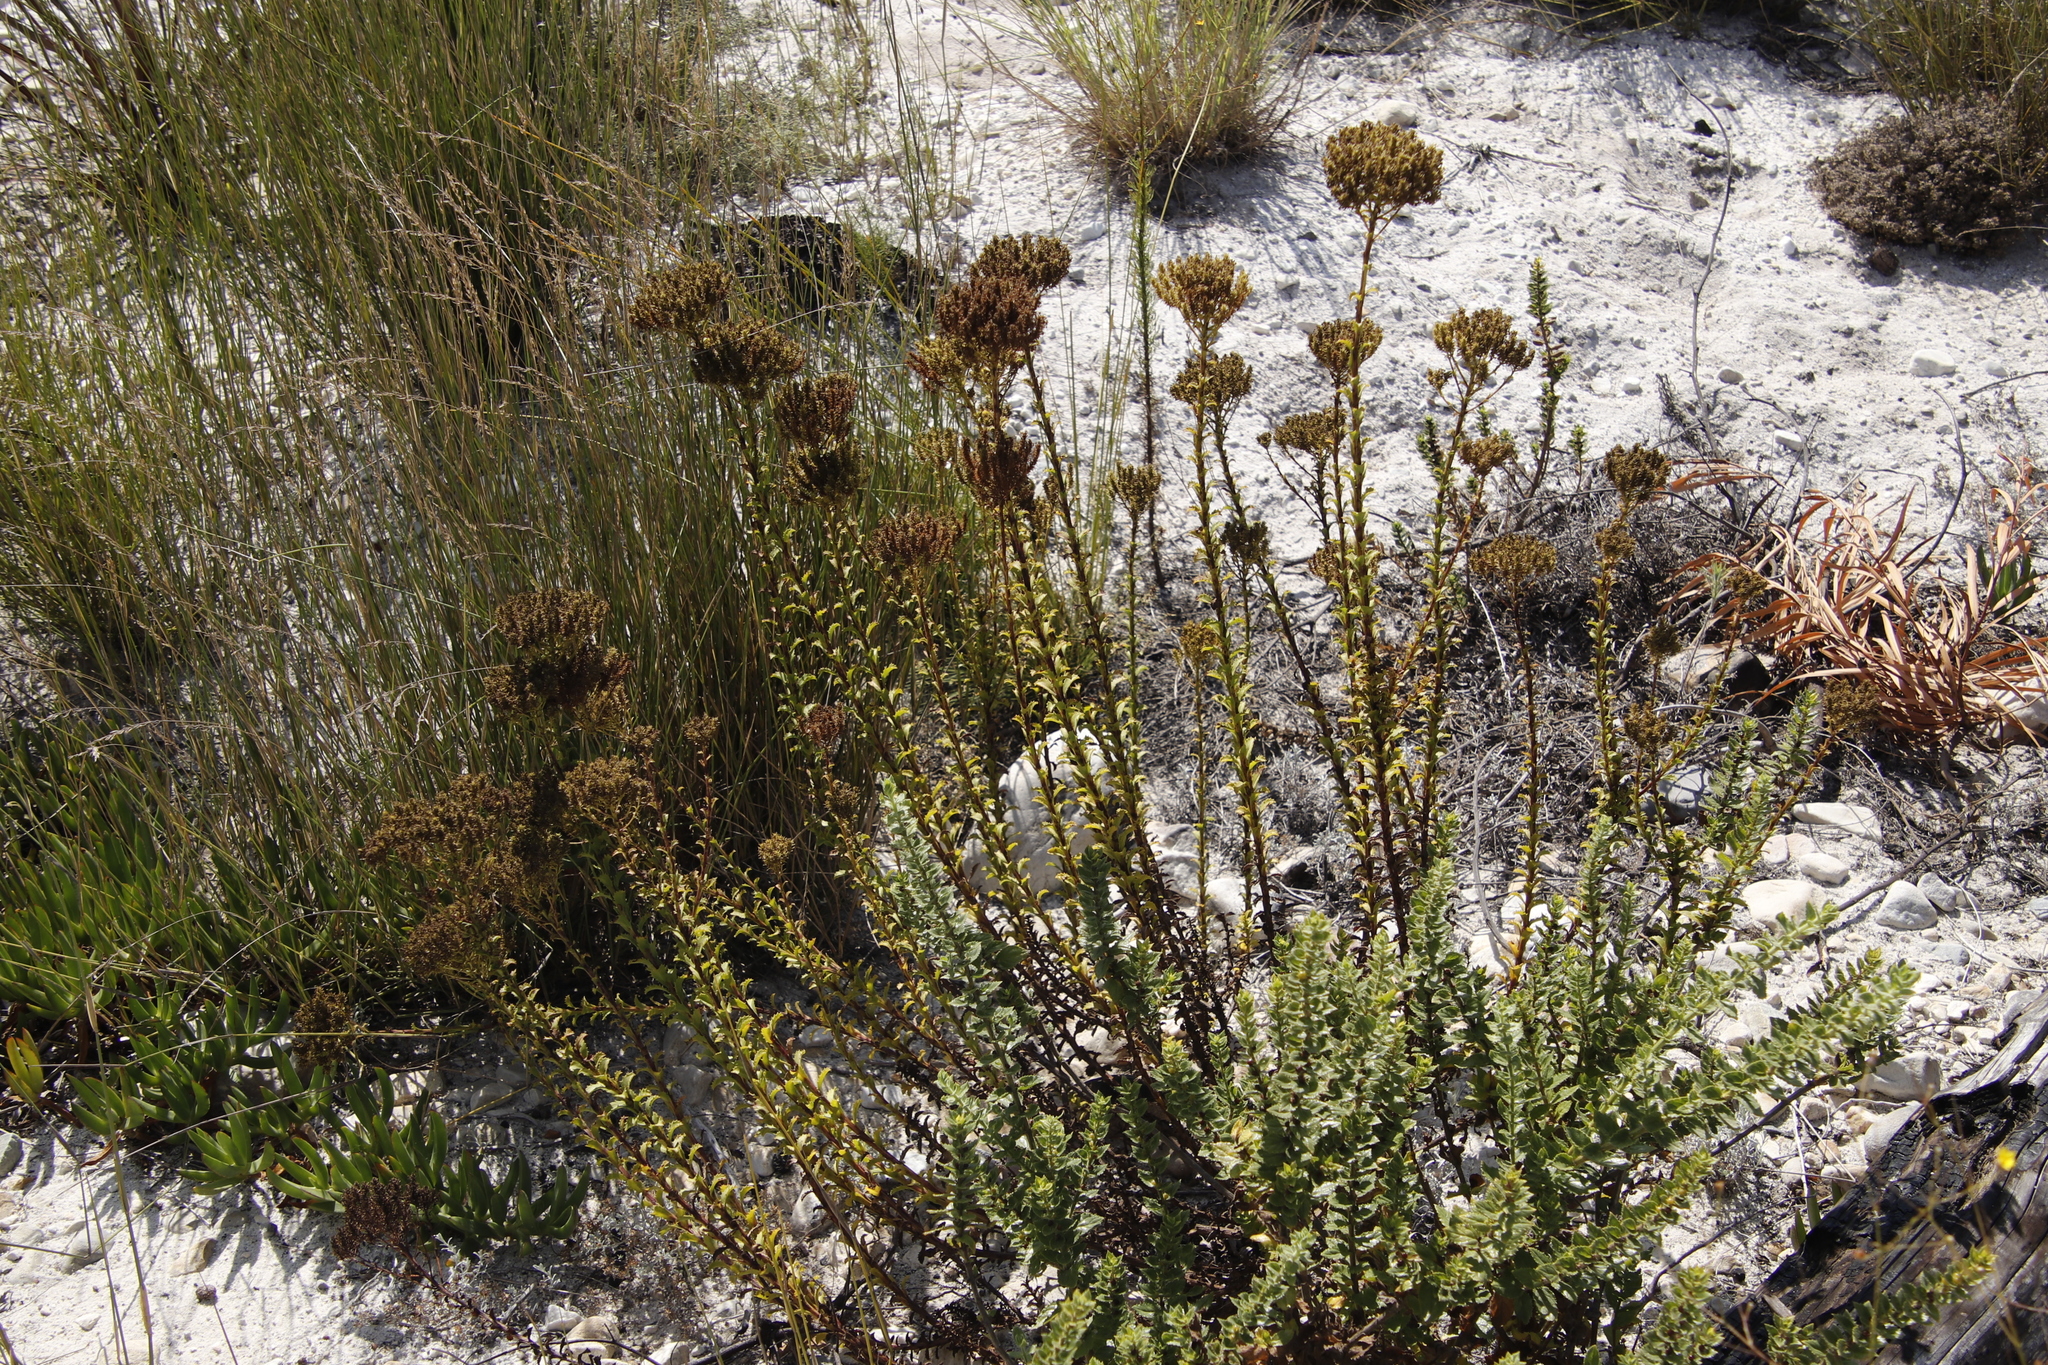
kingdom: Plantae
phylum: Tracheophyta
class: Magnoliopsida
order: Lamiales
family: Scrophulariaceae
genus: Pseudoselago
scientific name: Pseudoselago serrata
